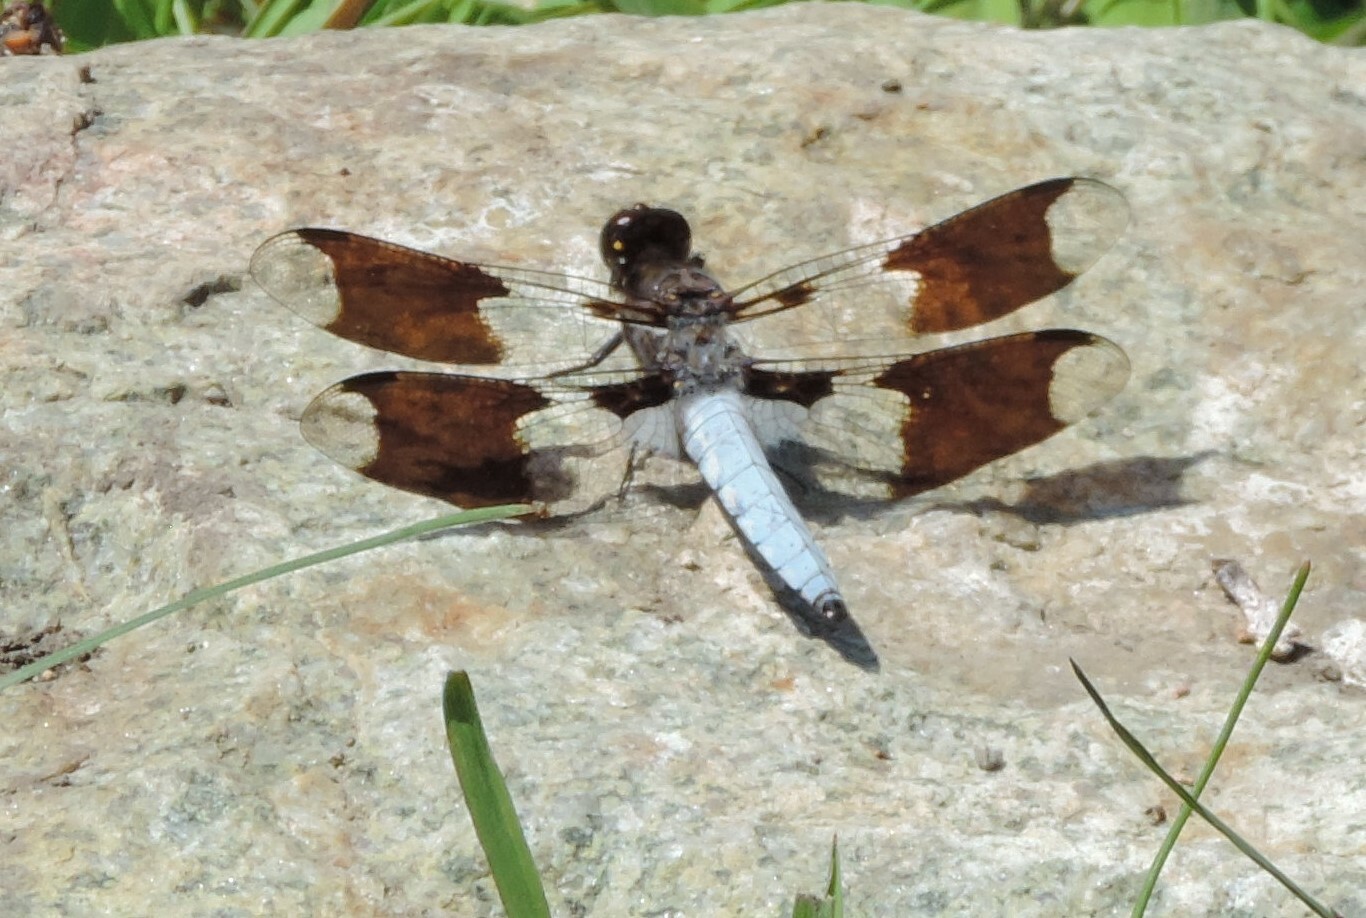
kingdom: Animalia
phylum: Arthropoda
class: Insecta
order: Odonata
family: Libellulidae
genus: Plathemis
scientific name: Plathemis lydia
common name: Common whitetail
